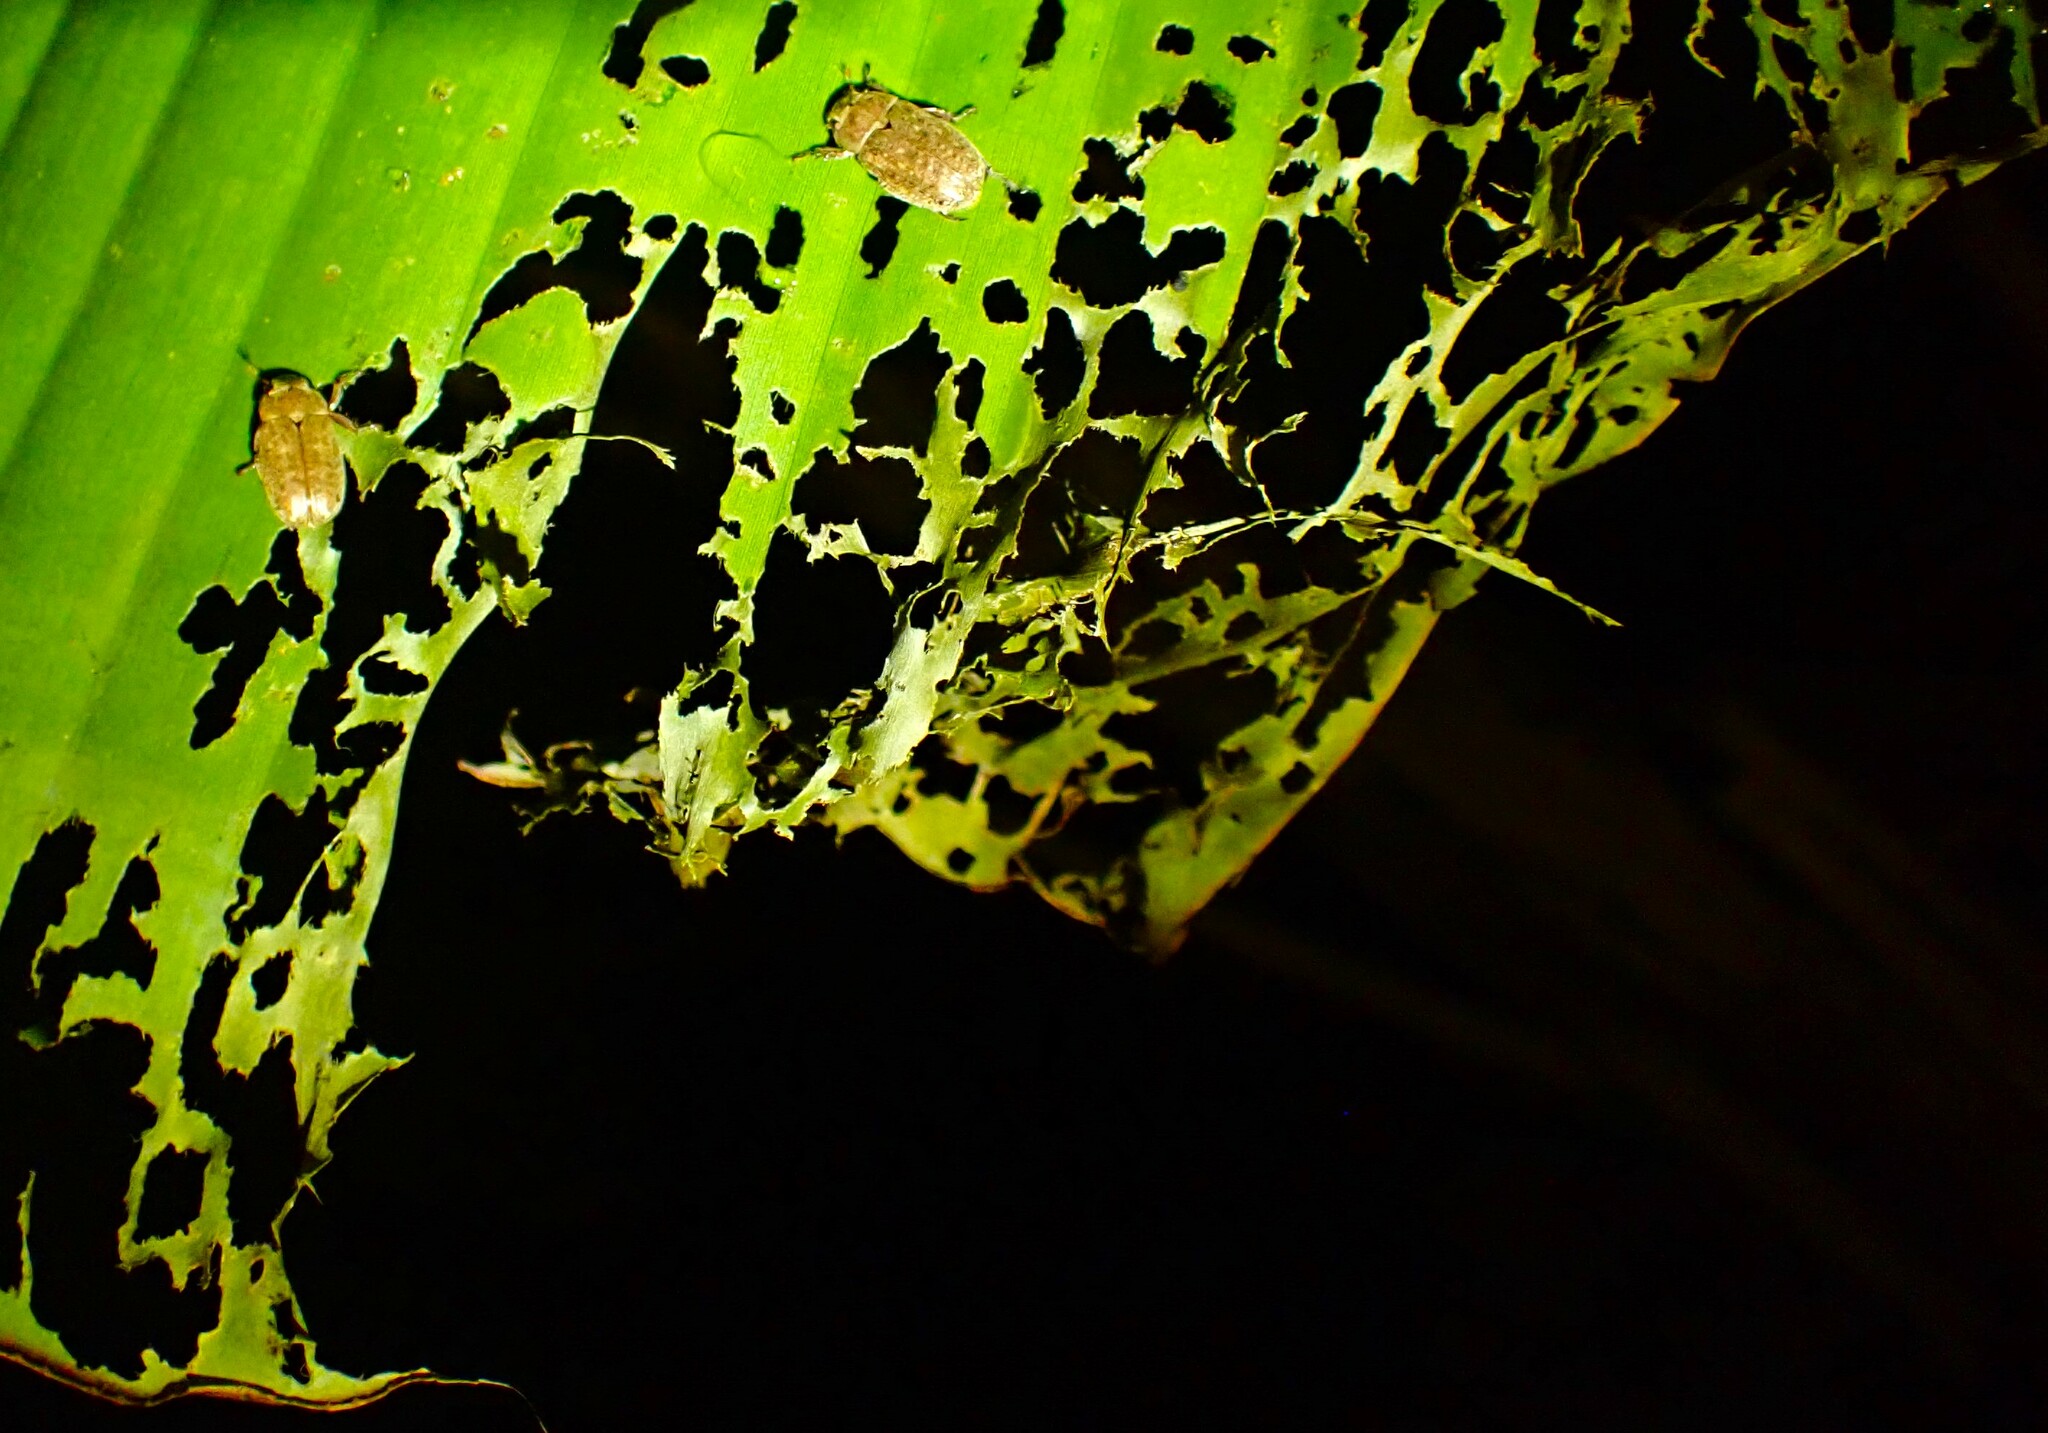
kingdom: Animalia
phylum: Arthropoda
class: Insecta
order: Coleoptera
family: Scarabaeidae
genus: Adoretus
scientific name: Adoretus sinicus
